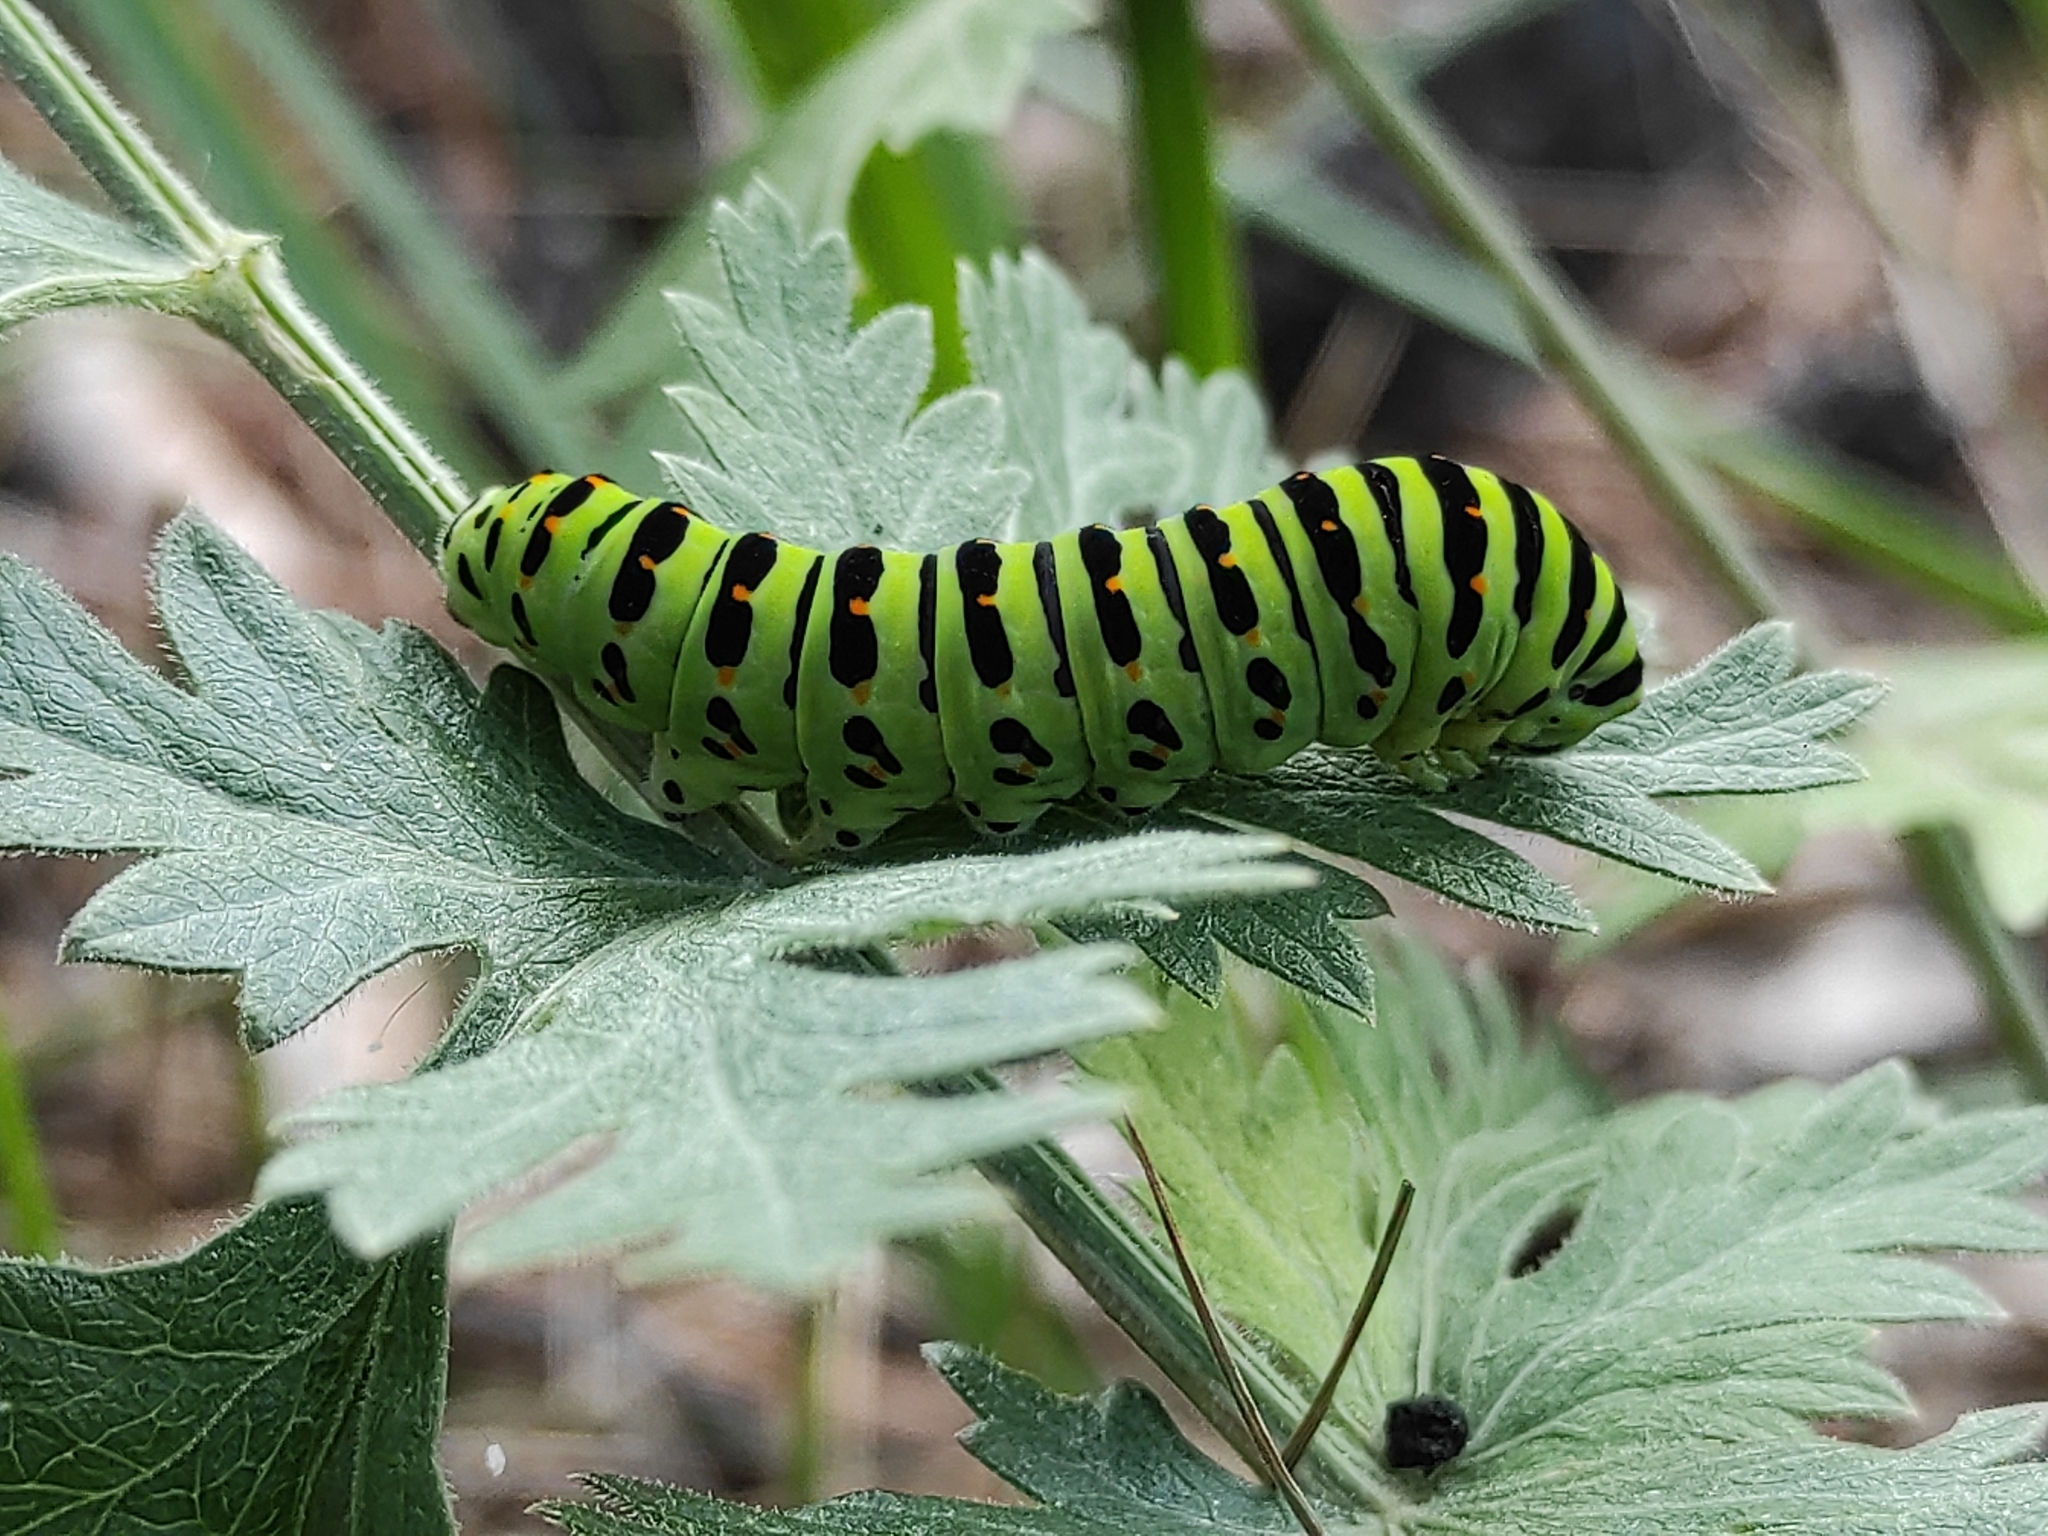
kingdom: Animalia
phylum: Arthropoda
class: Insecta
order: Lepidoptera
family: Papilionidae
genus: Papilio
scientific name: Papilio machaon
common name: Swallowtail
